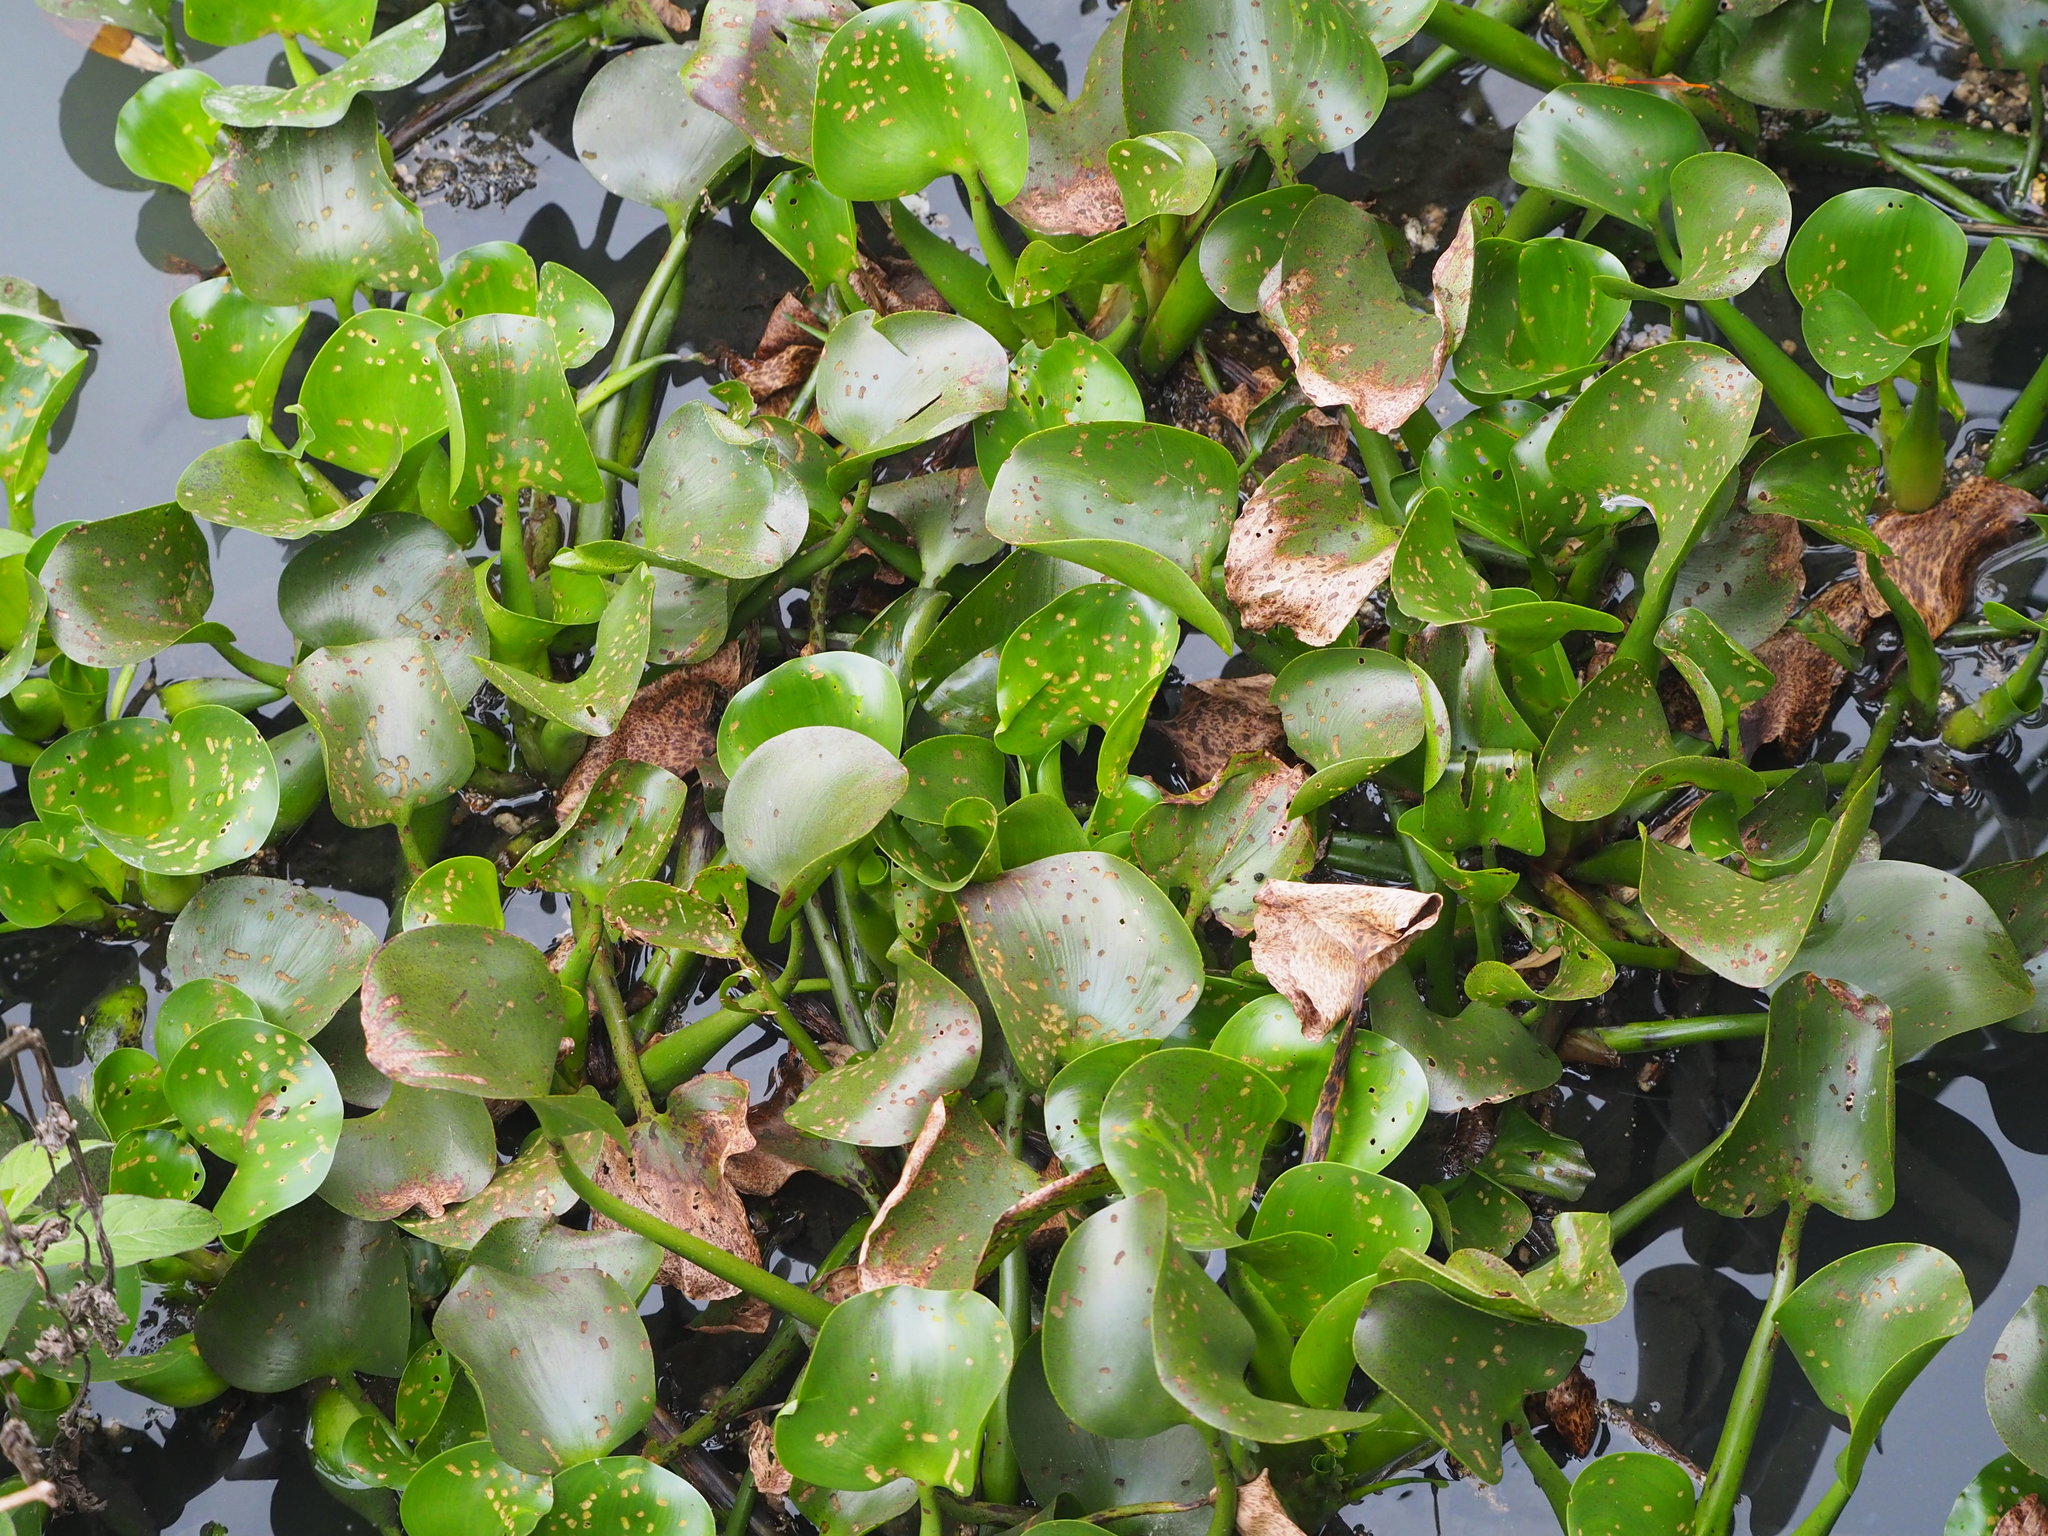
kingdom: Plantae
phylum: Tracheophyta
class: Liliopsida
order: Commelinales
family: Pontederiaceae
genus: Pontederia
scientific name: Pontederia crassipes
